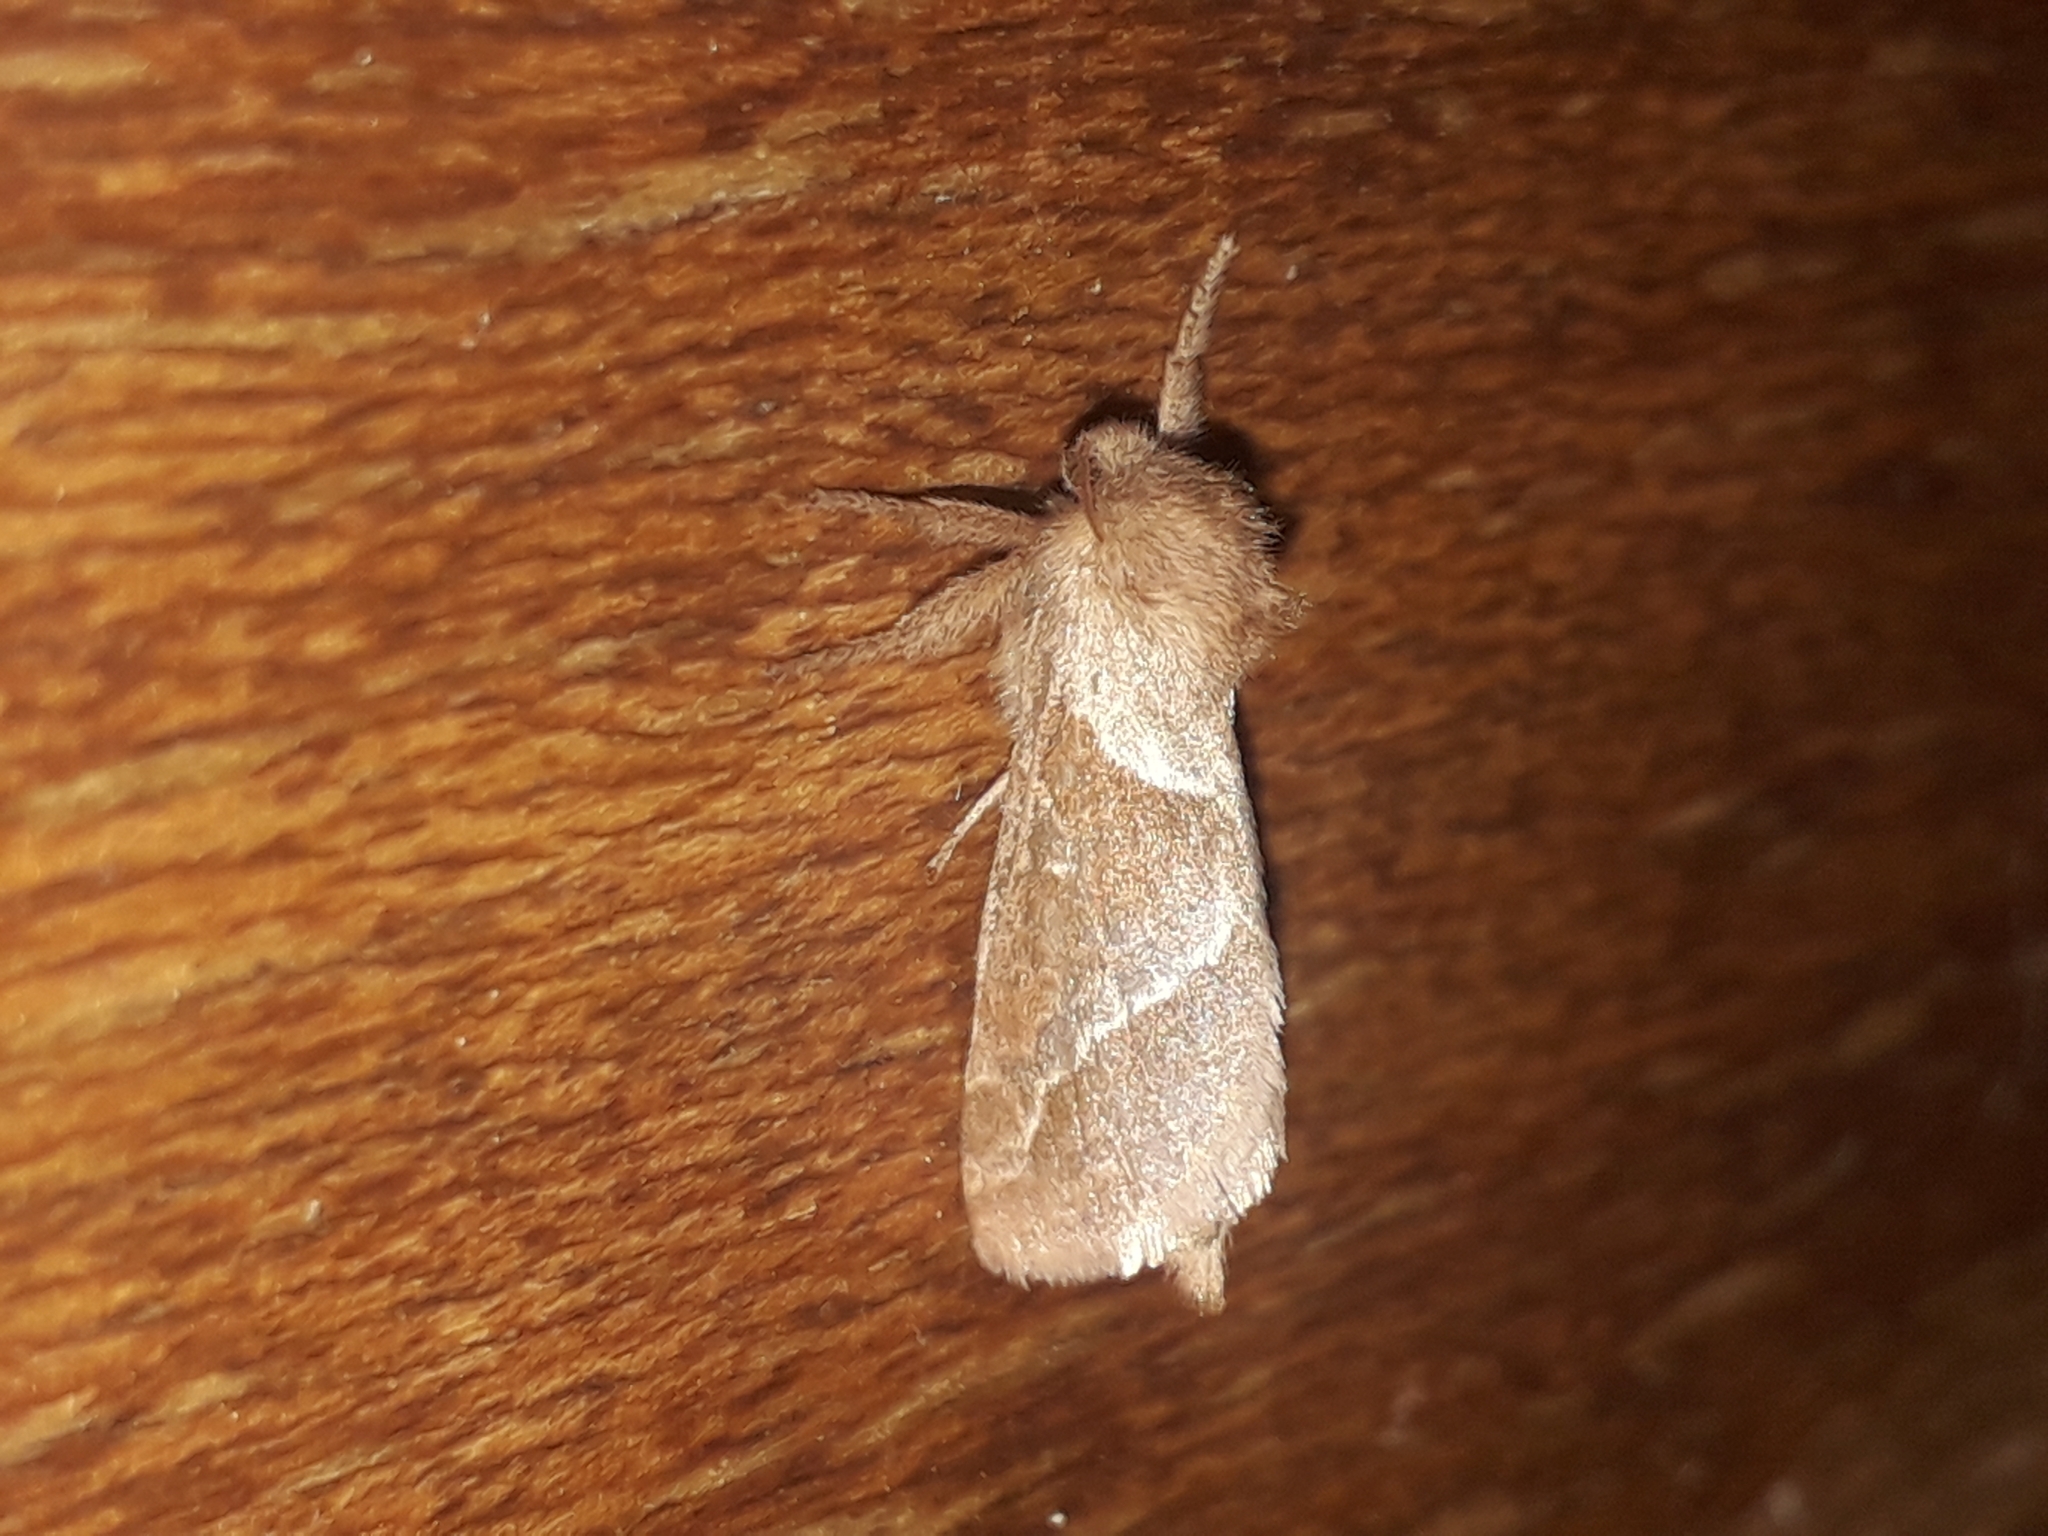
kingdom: Animalia
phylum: Arthropoda
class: Insecta
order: Lepidoptera
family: Hepialidae
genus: Triodia
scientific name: Triodia sylvina
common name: Orange swift
